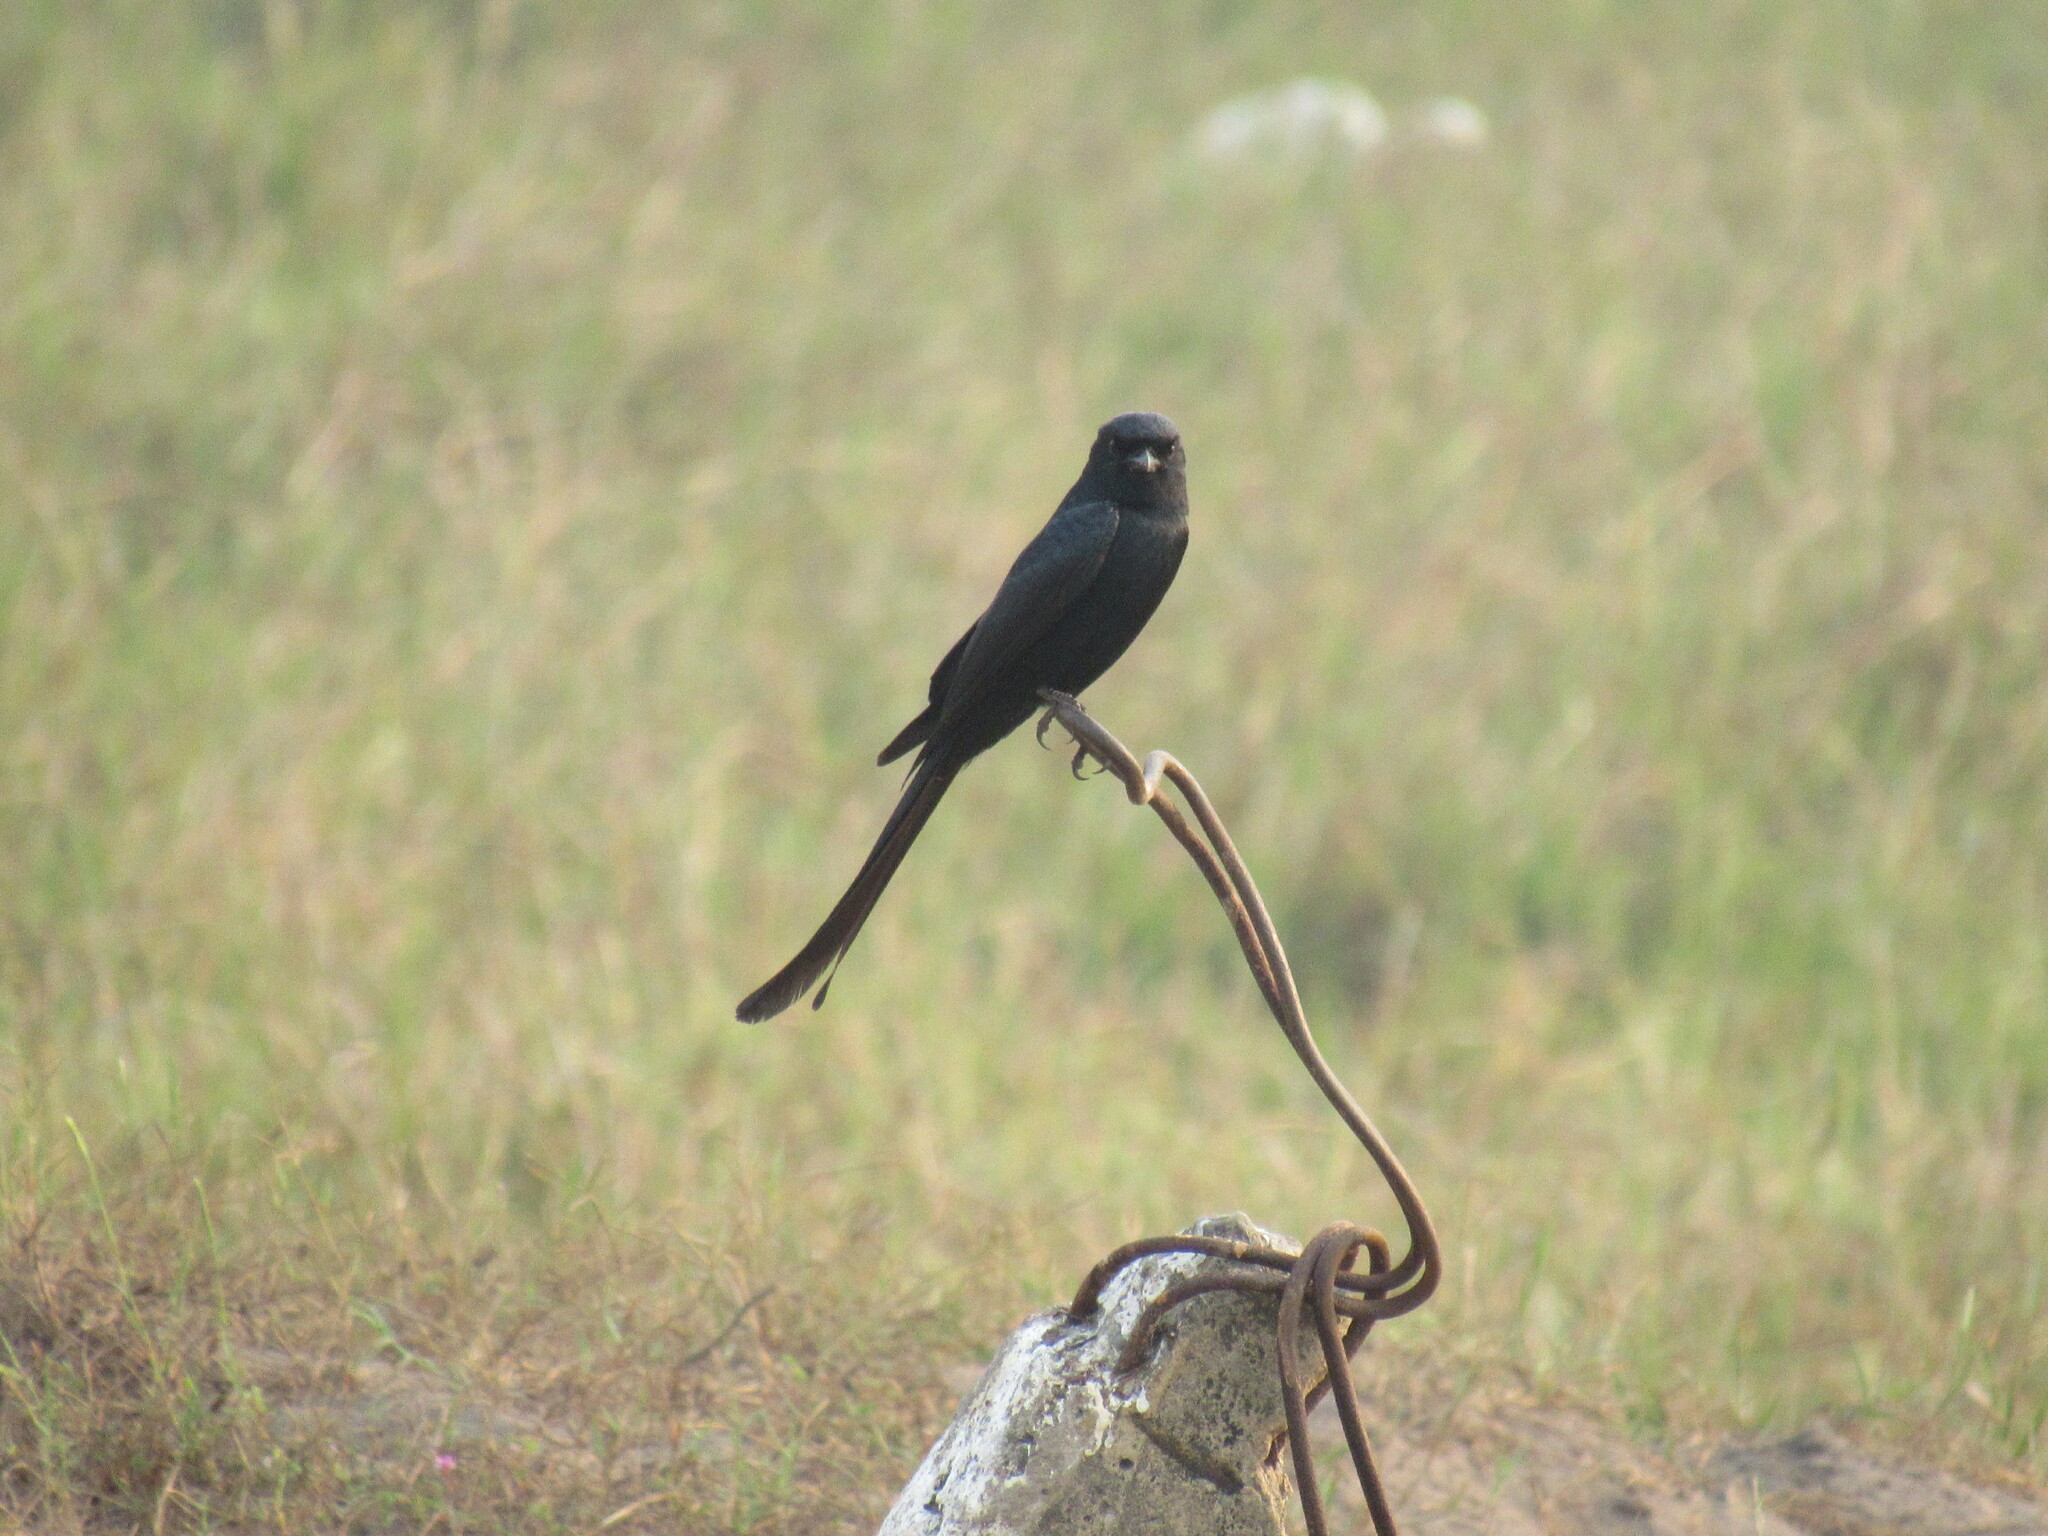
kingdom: Animalia
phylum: Chordata
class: Aves
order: Passeriformes
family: Dicruridae
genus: Dicrurus
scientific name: Dicrurus macrocercus
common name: Black drongo
